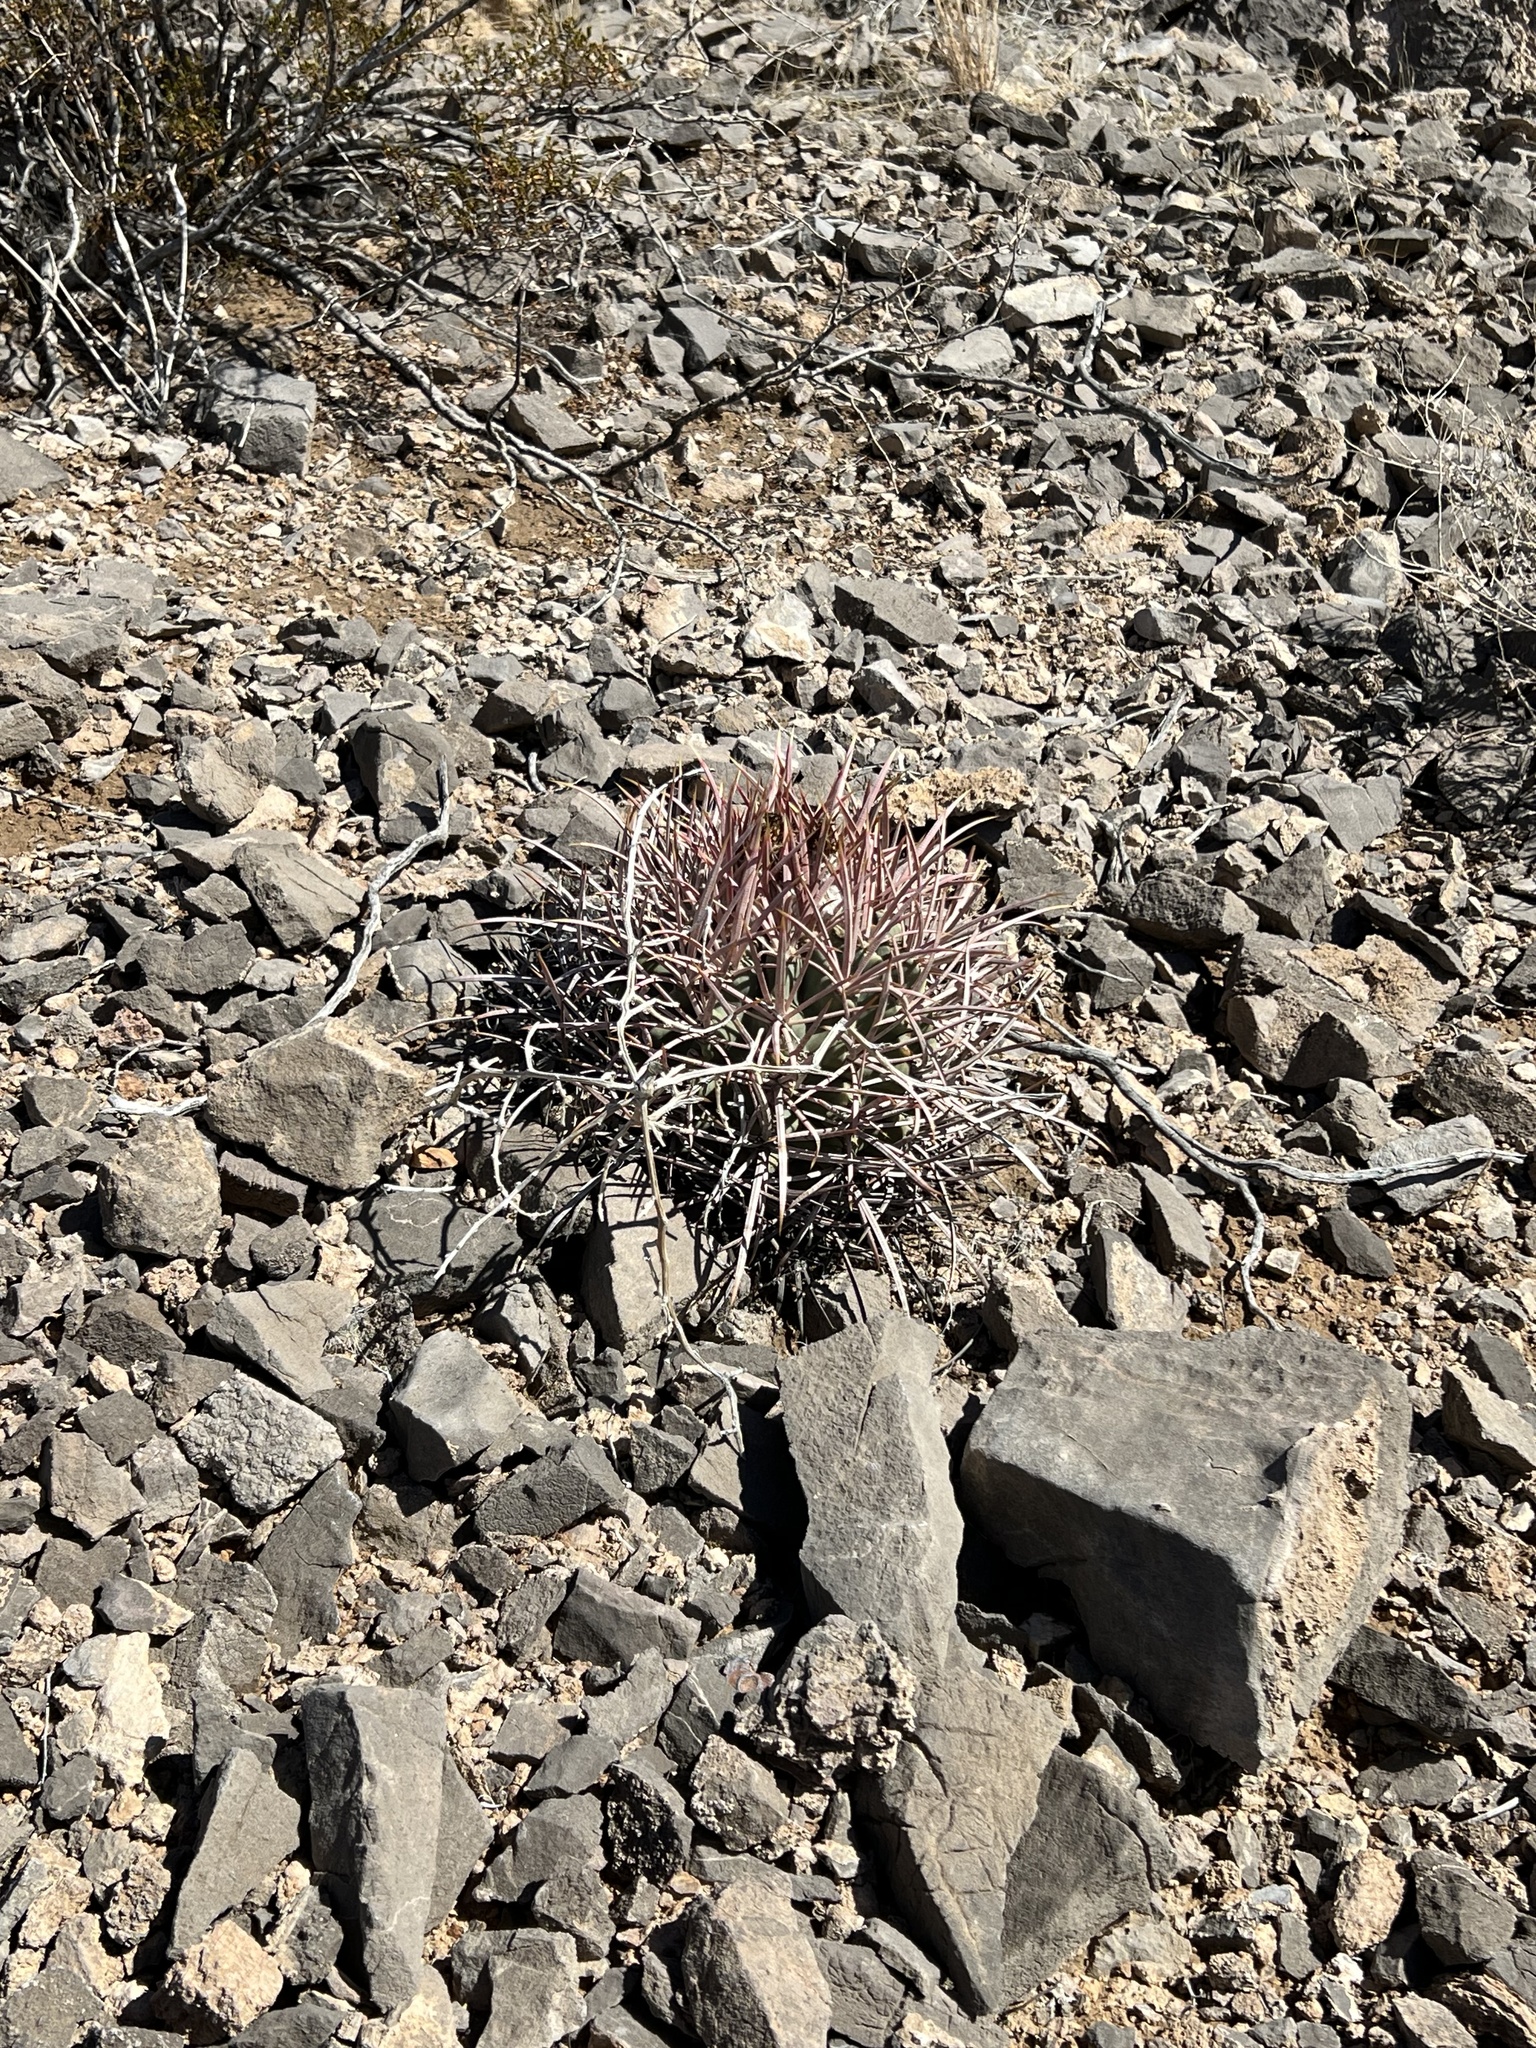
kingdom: Plantae
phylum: Tracheophyta
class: Magnoliopsida
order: Caryophyllales
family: Cactaceae
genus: Echinocactus
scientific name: Echinocactus polycephalus
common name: Cottontop cactus
